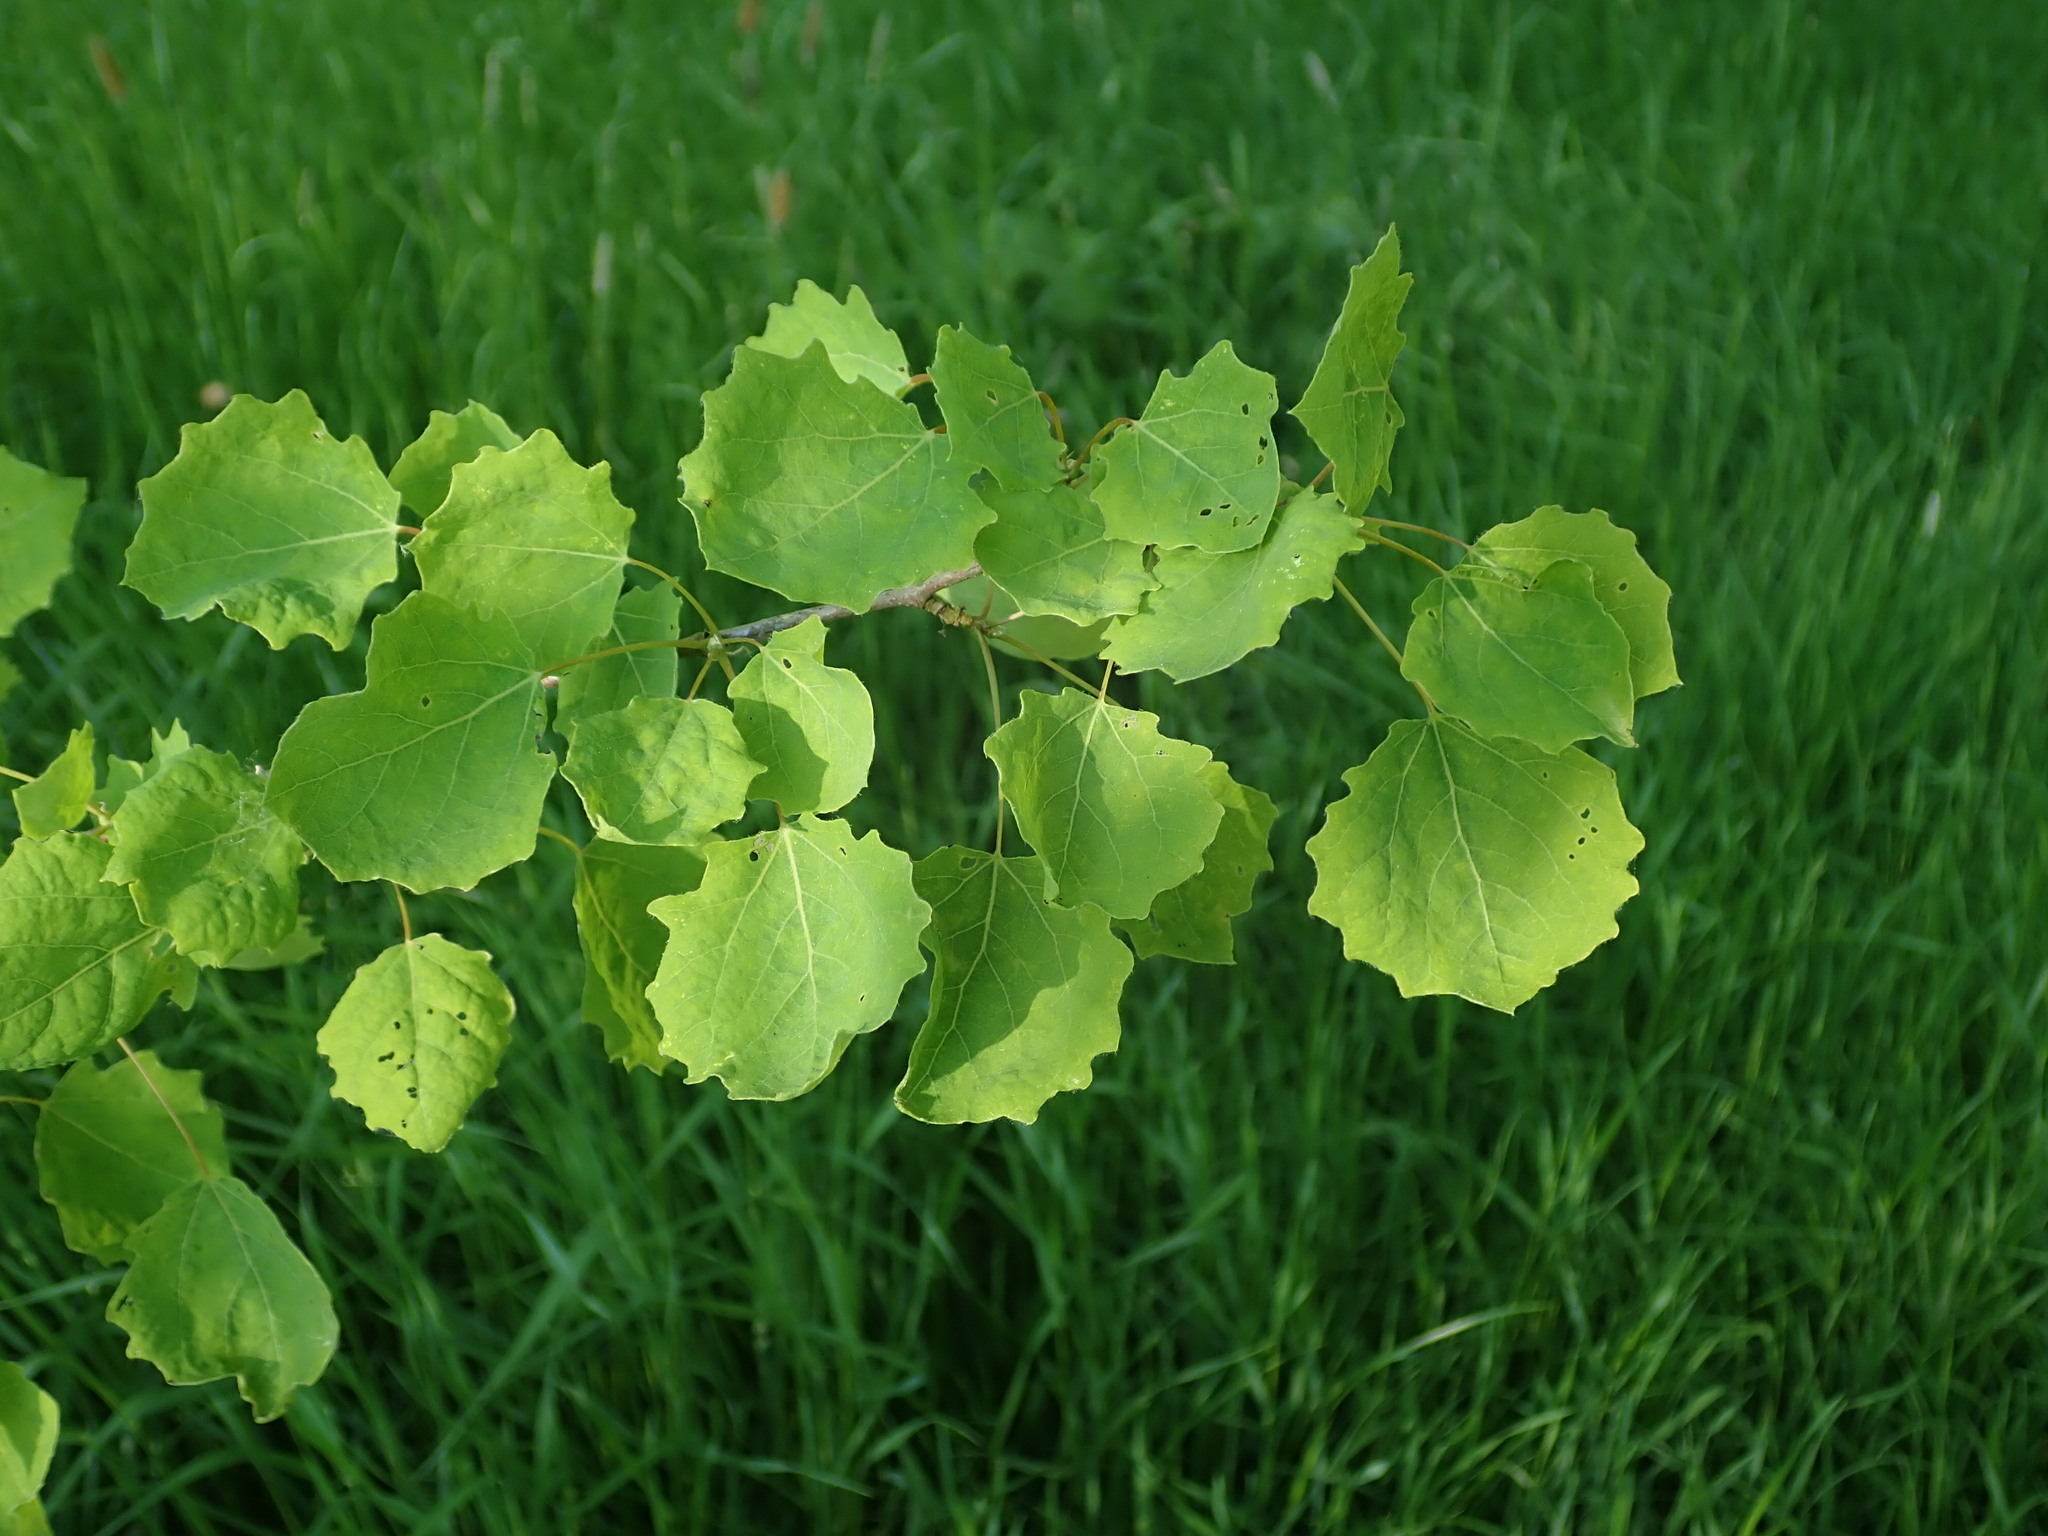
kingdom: Plantae
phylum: Tracheophyta
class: Magnoliopsida
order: Malpighiales
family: Salicaceae
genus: Populus
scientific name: Populus tremula
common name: European aspen
